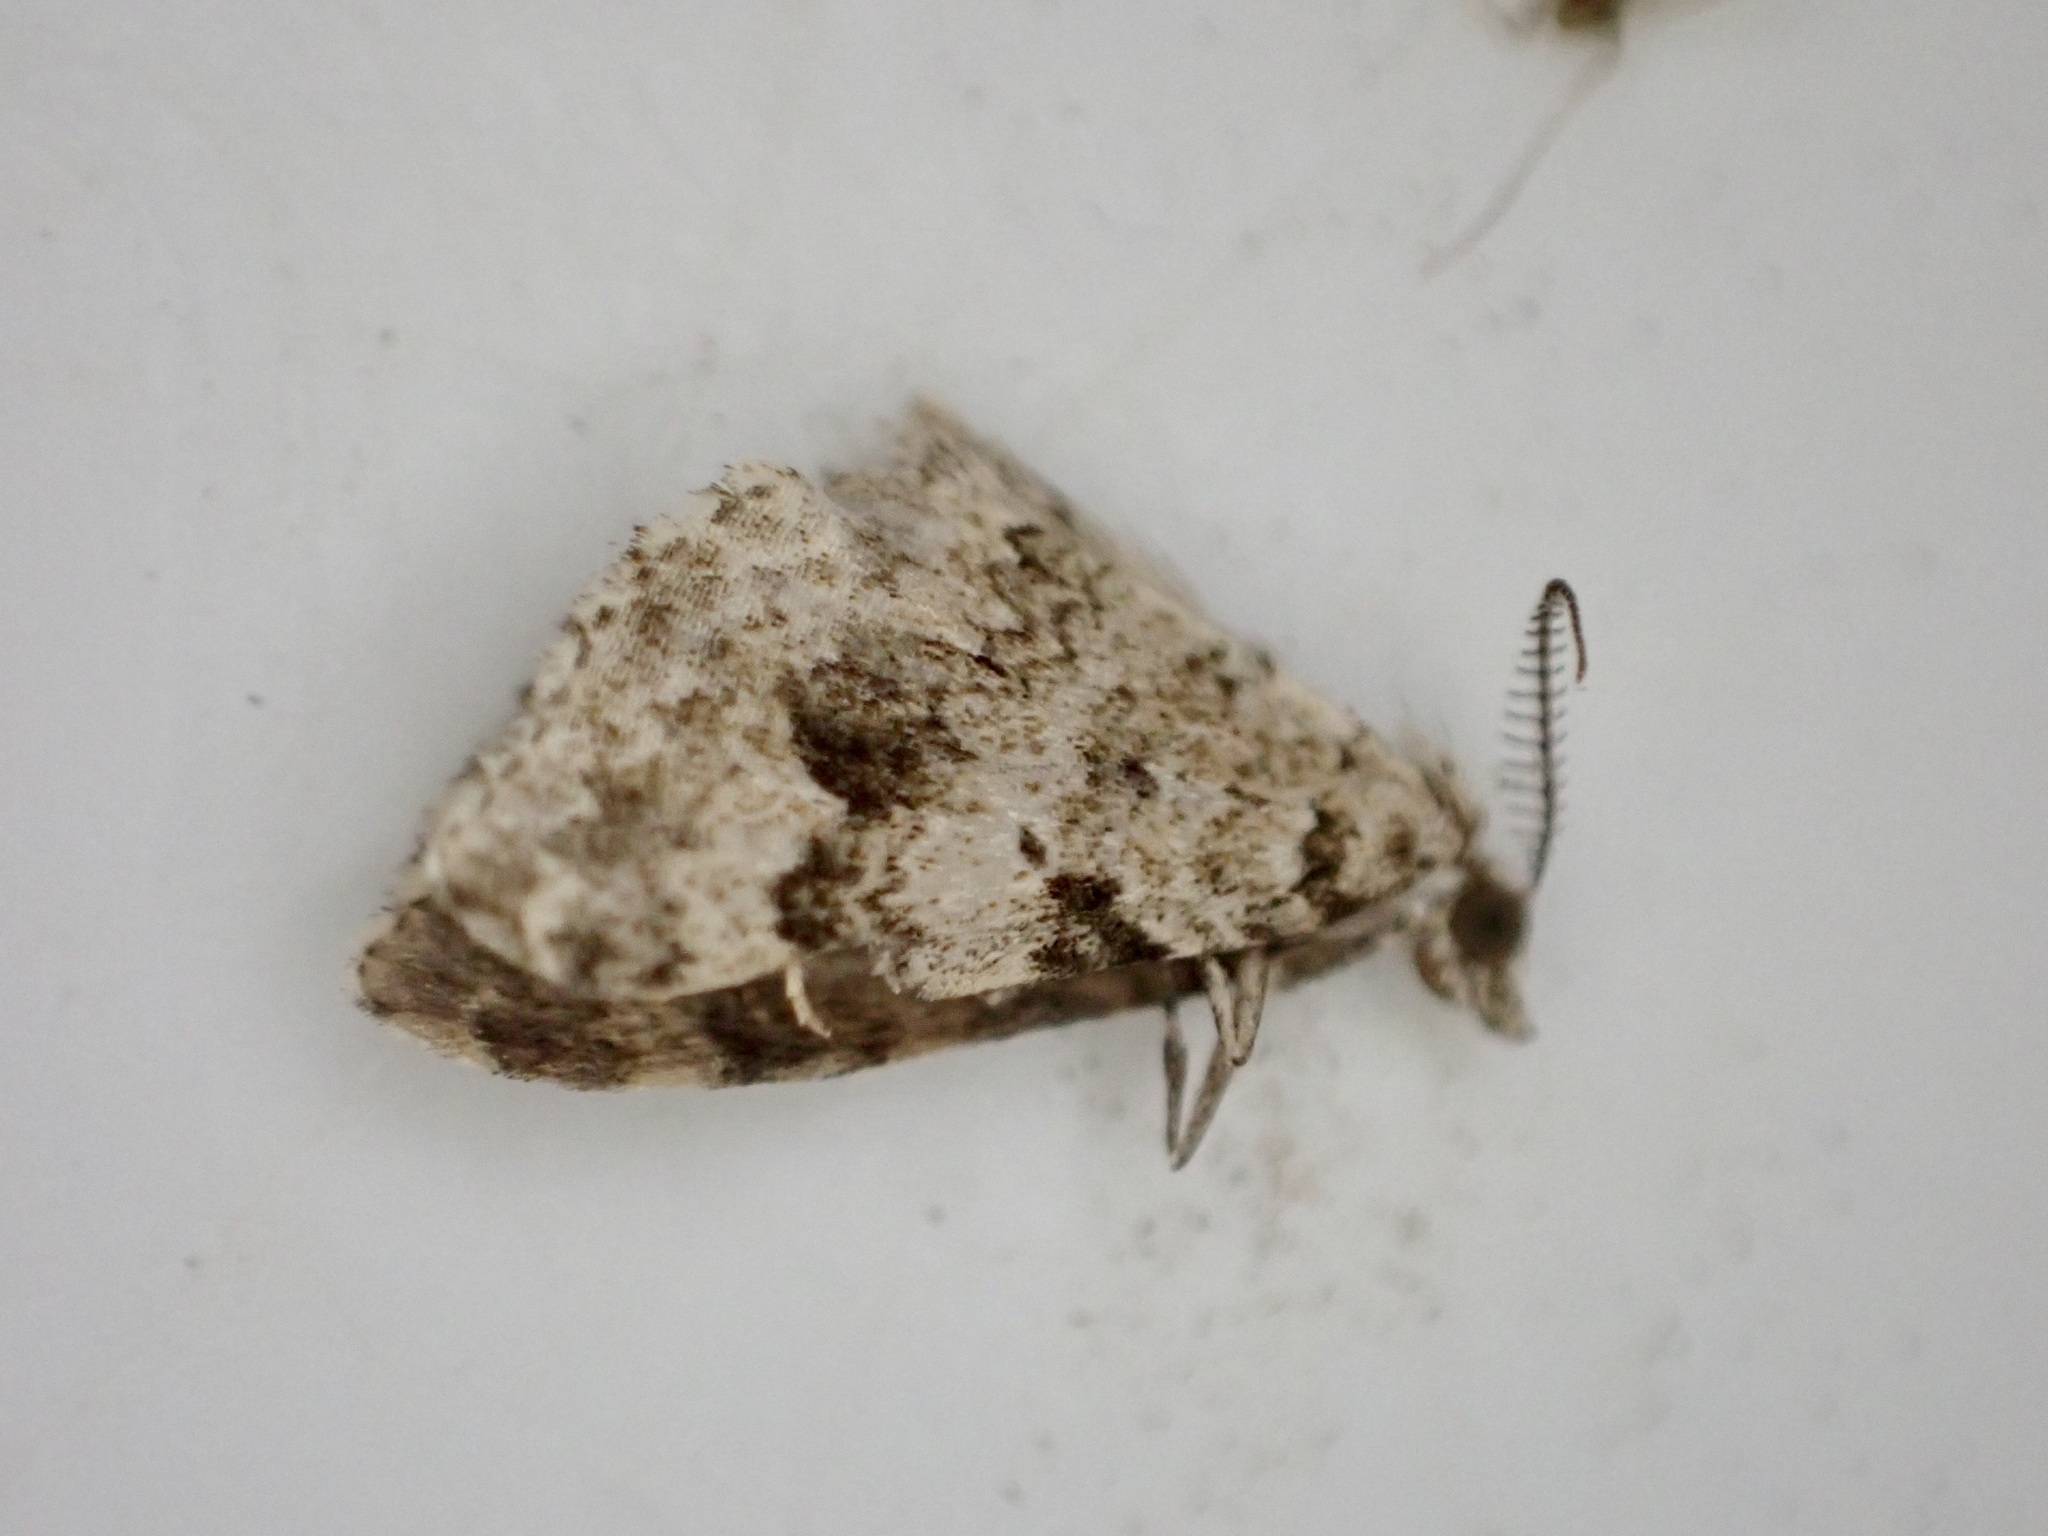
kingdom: Animalia
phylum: Arthropoda
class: Insecta
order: Lepidoptera
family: Geometridae
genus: Helastia
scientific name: Helastia cinerearia
